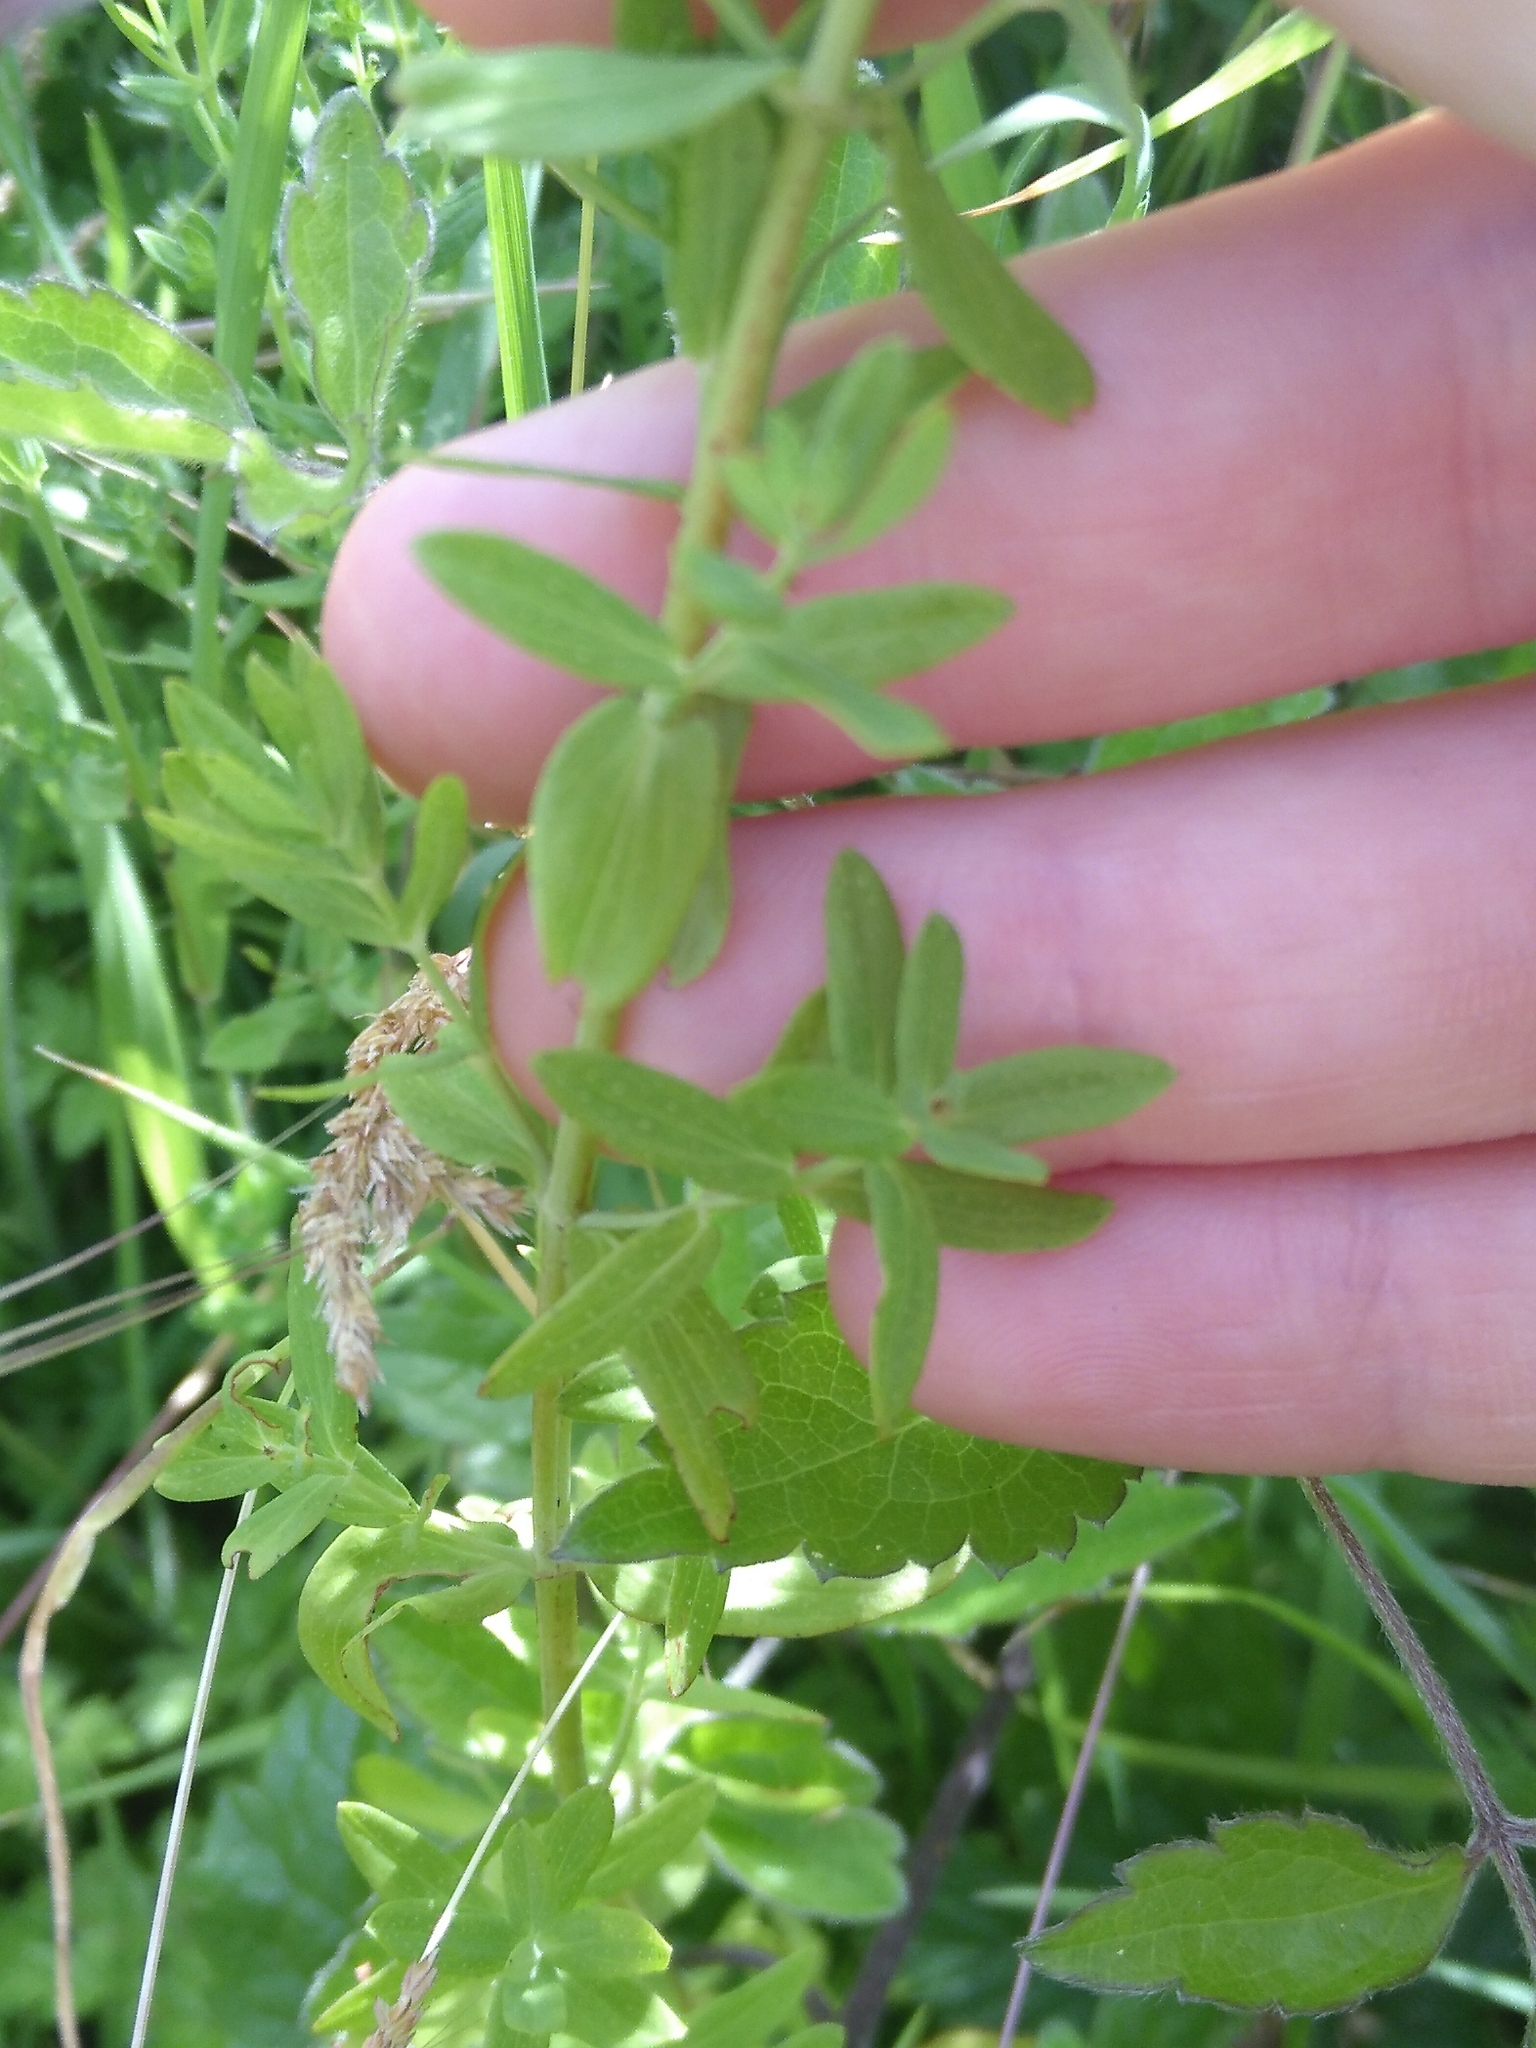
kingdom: Plantae
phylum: Tracheophyta
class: Magnoliopsida
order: Malpighiales
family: Hypericaceae
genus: Hypericum
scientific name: Hypericum perforatum
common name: Common st. johnswort
